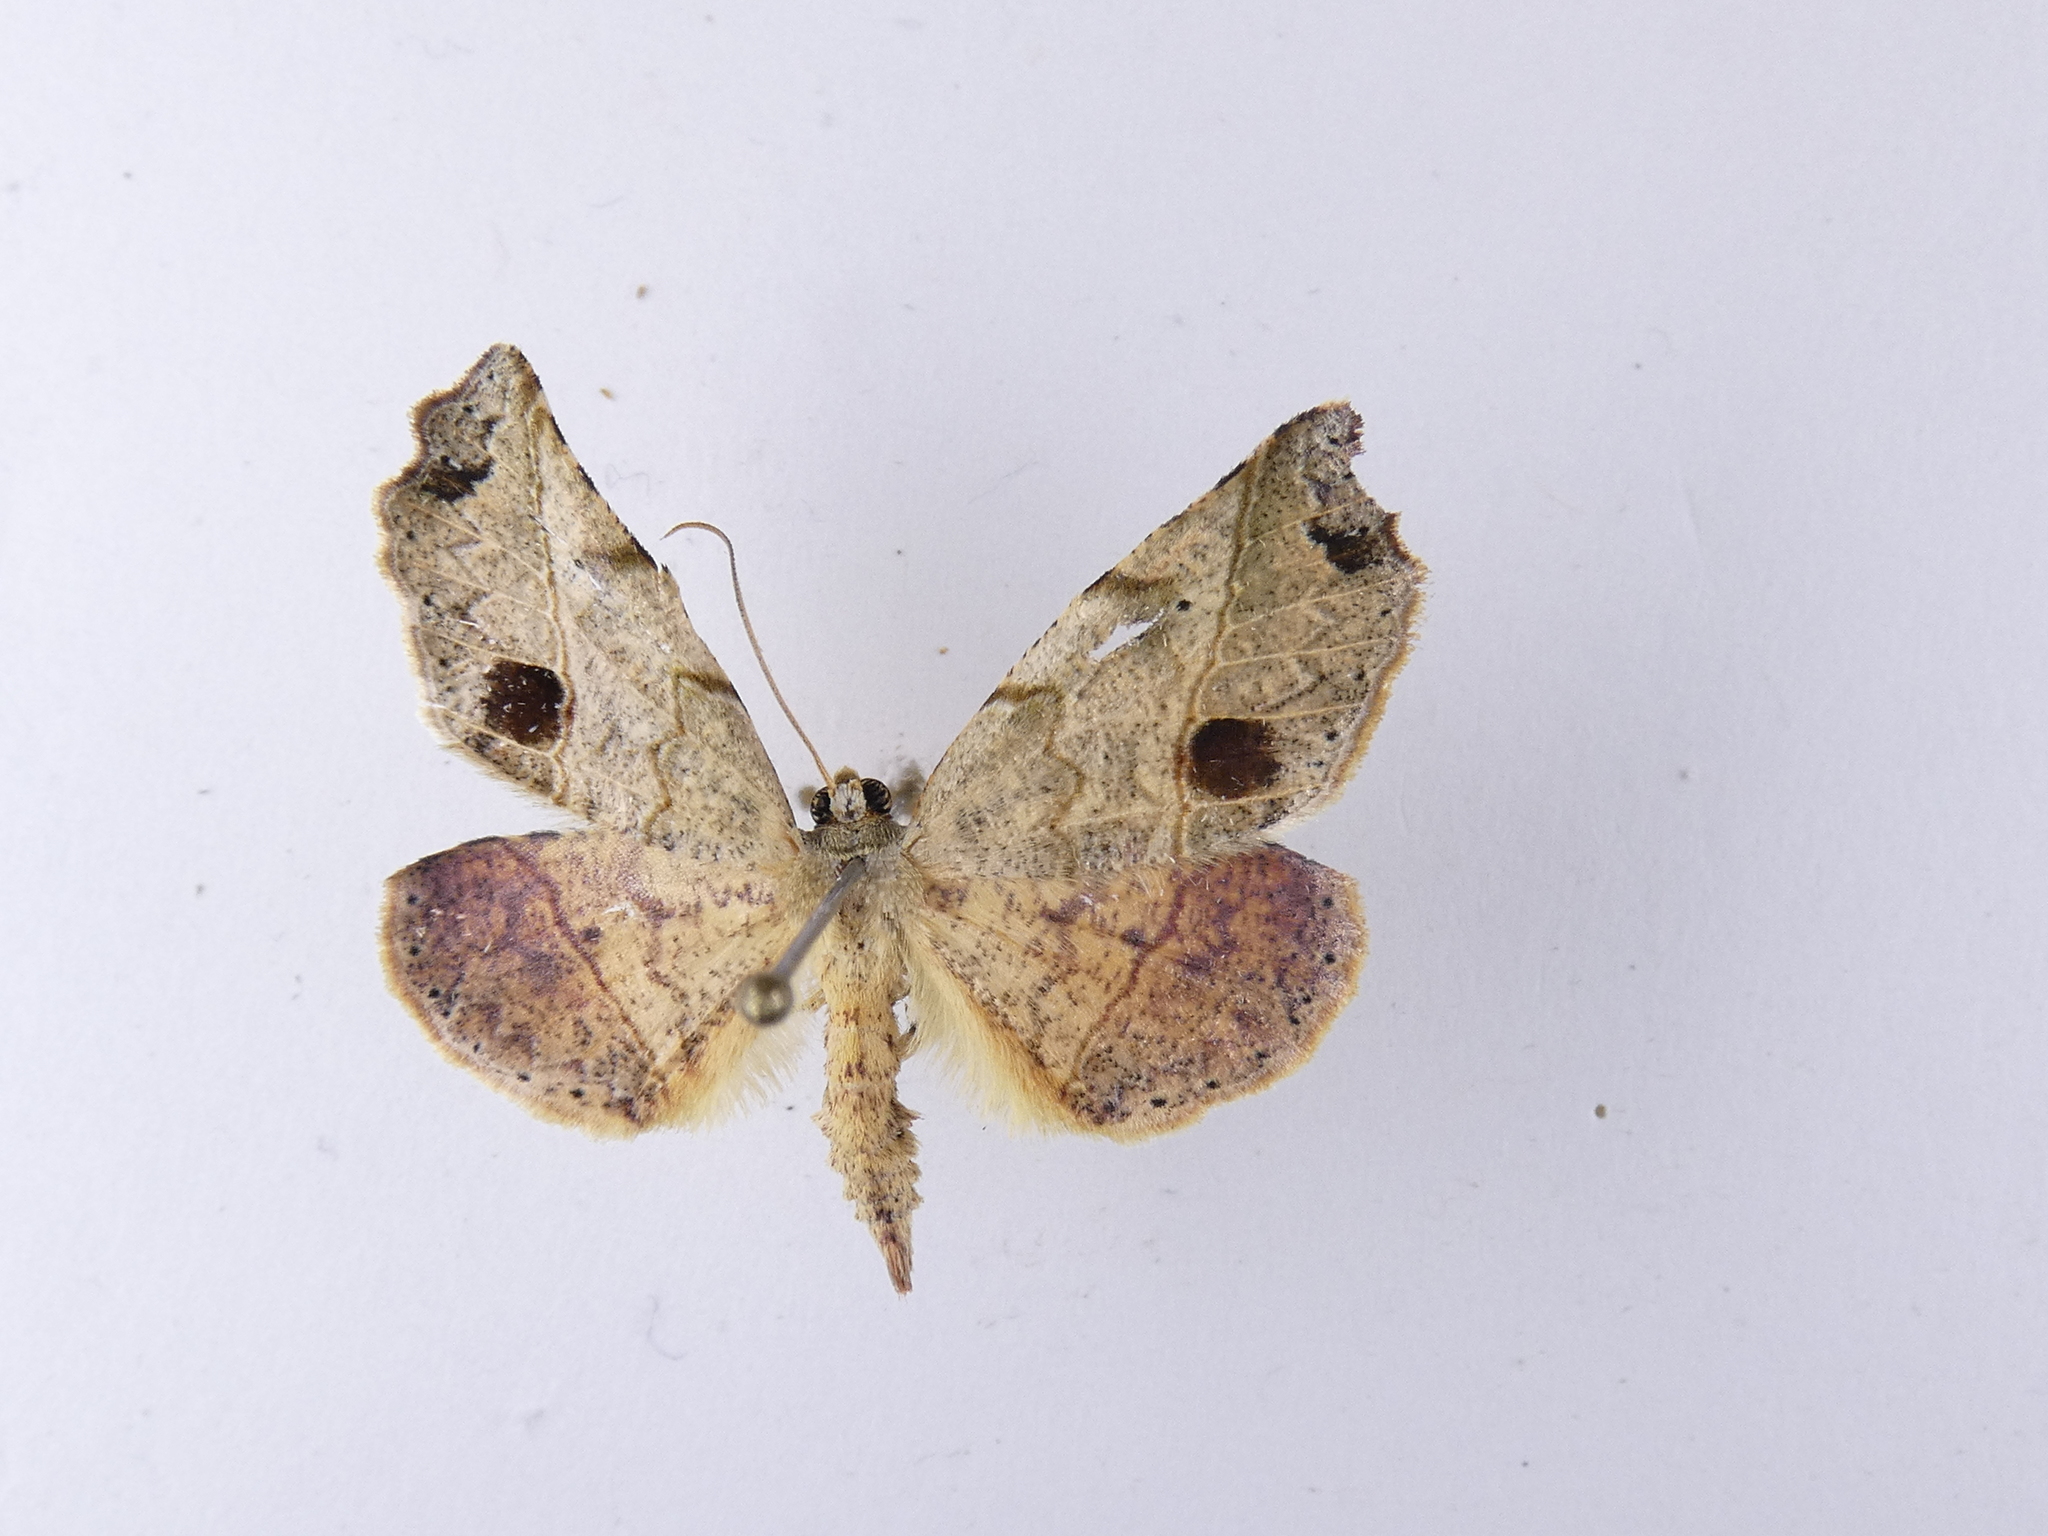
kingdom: Animalia
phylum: Arthropoda
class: Insecta
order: Lepidoptera
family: Geometridae
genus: Ischalis
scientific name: Ischalis gallaria
